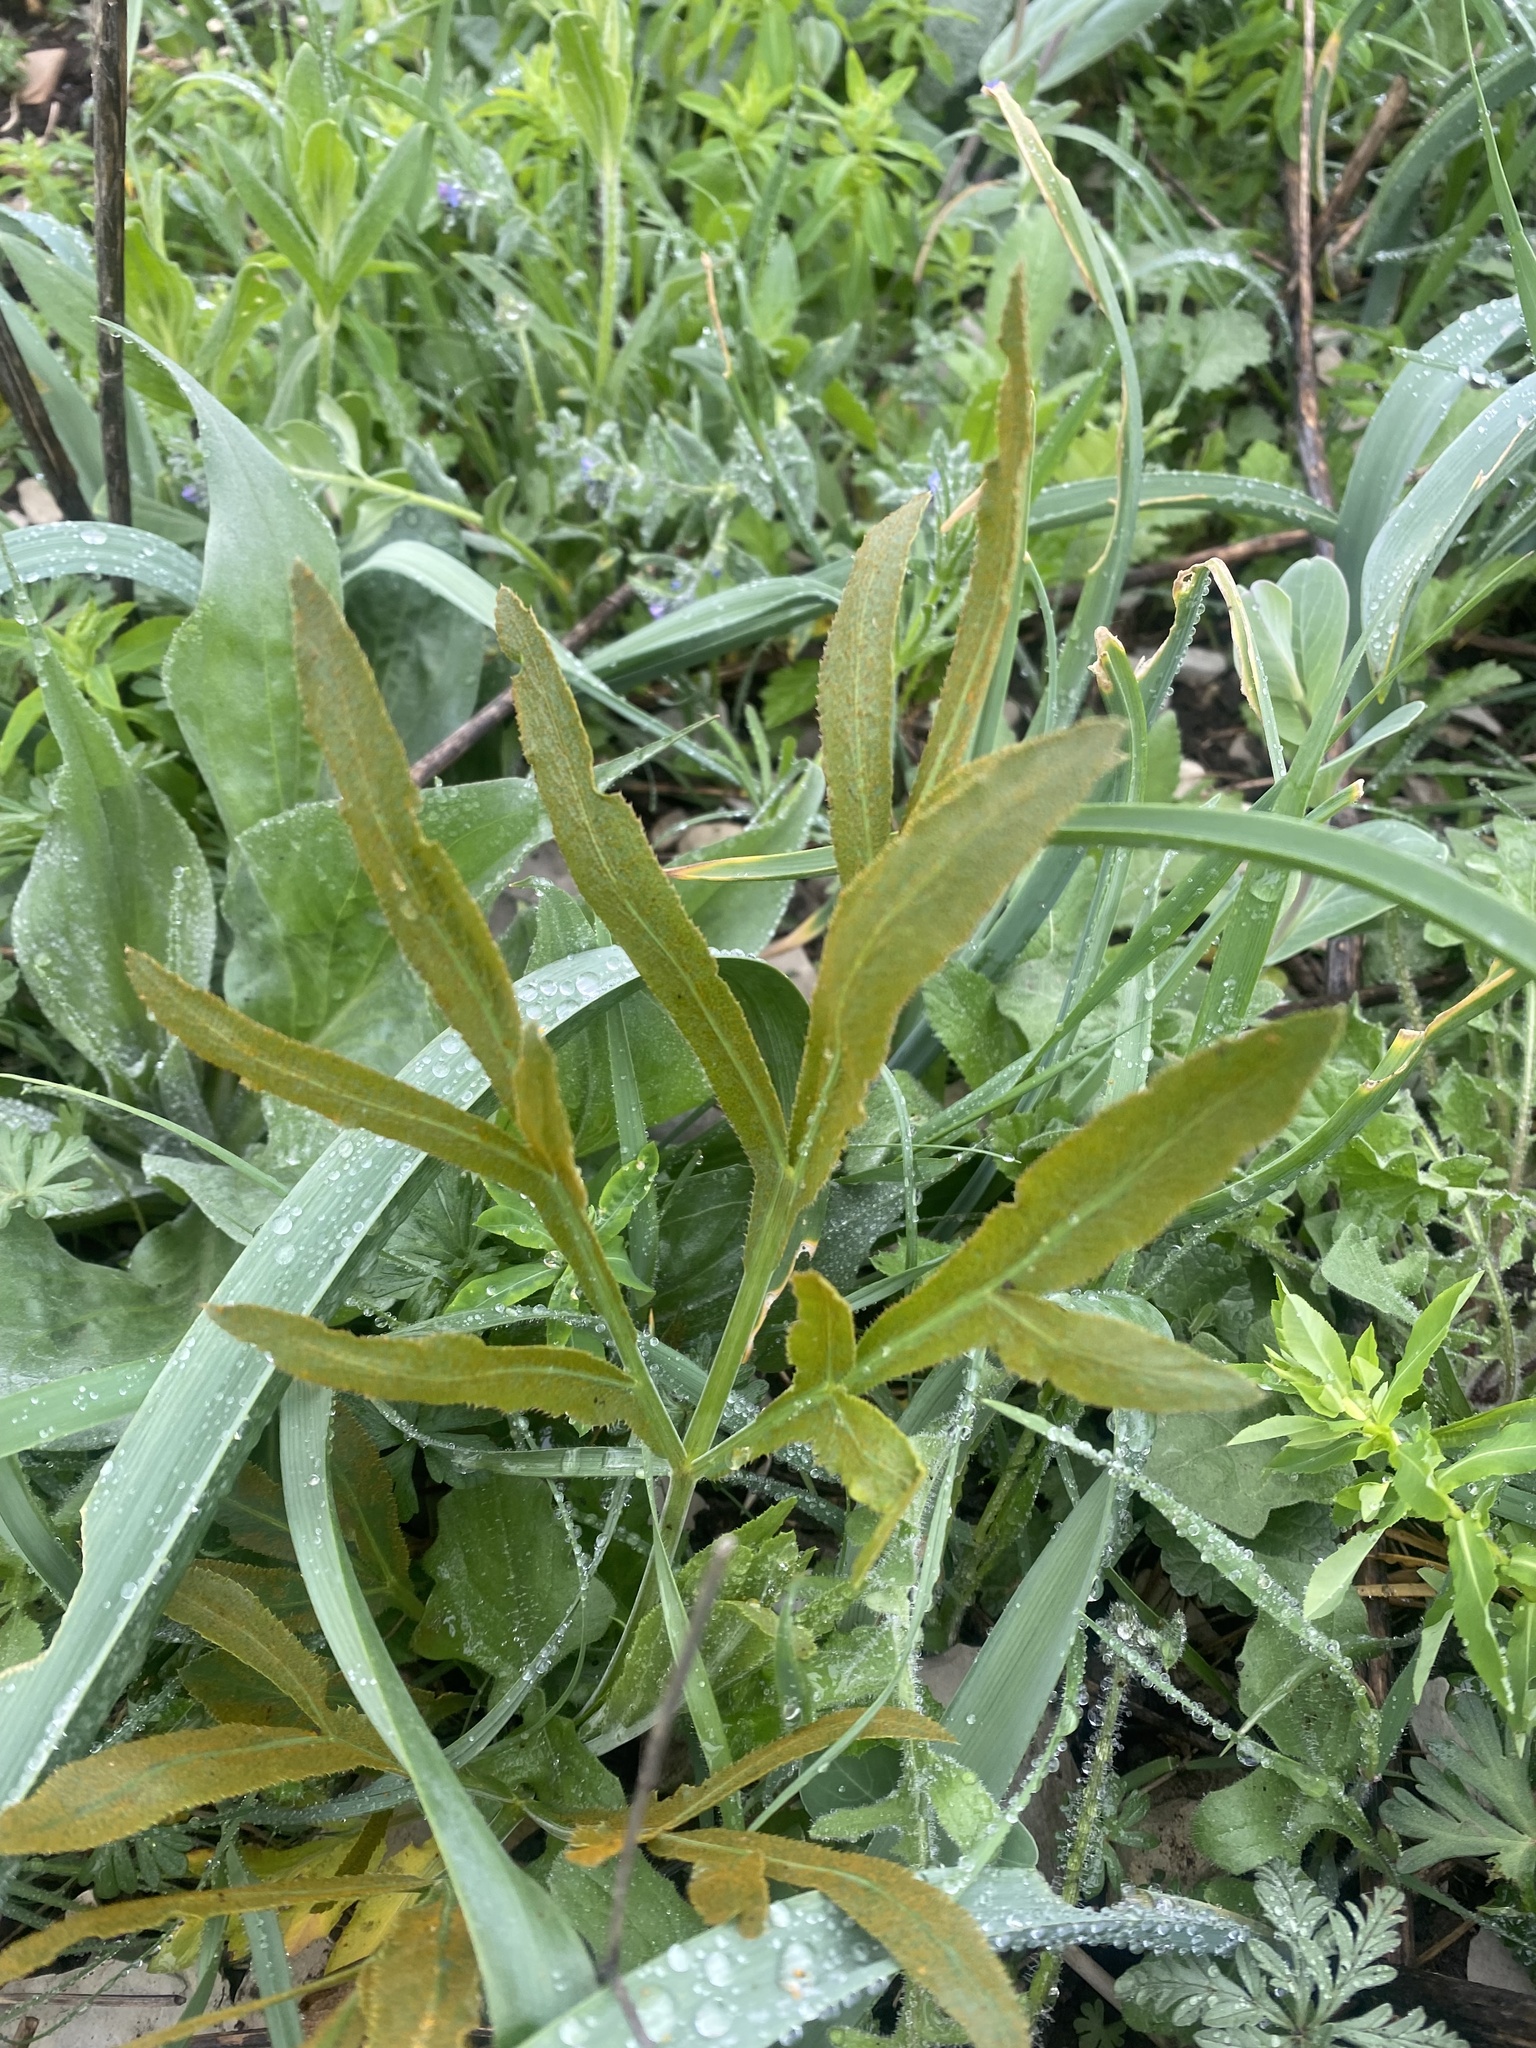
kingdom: Plantae
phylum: Tracheophyta
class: Magnoliopsida
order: Apiales
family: Apiaceae
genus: Falcaria
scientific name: Falcaria vulgaris
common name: Longleaf
